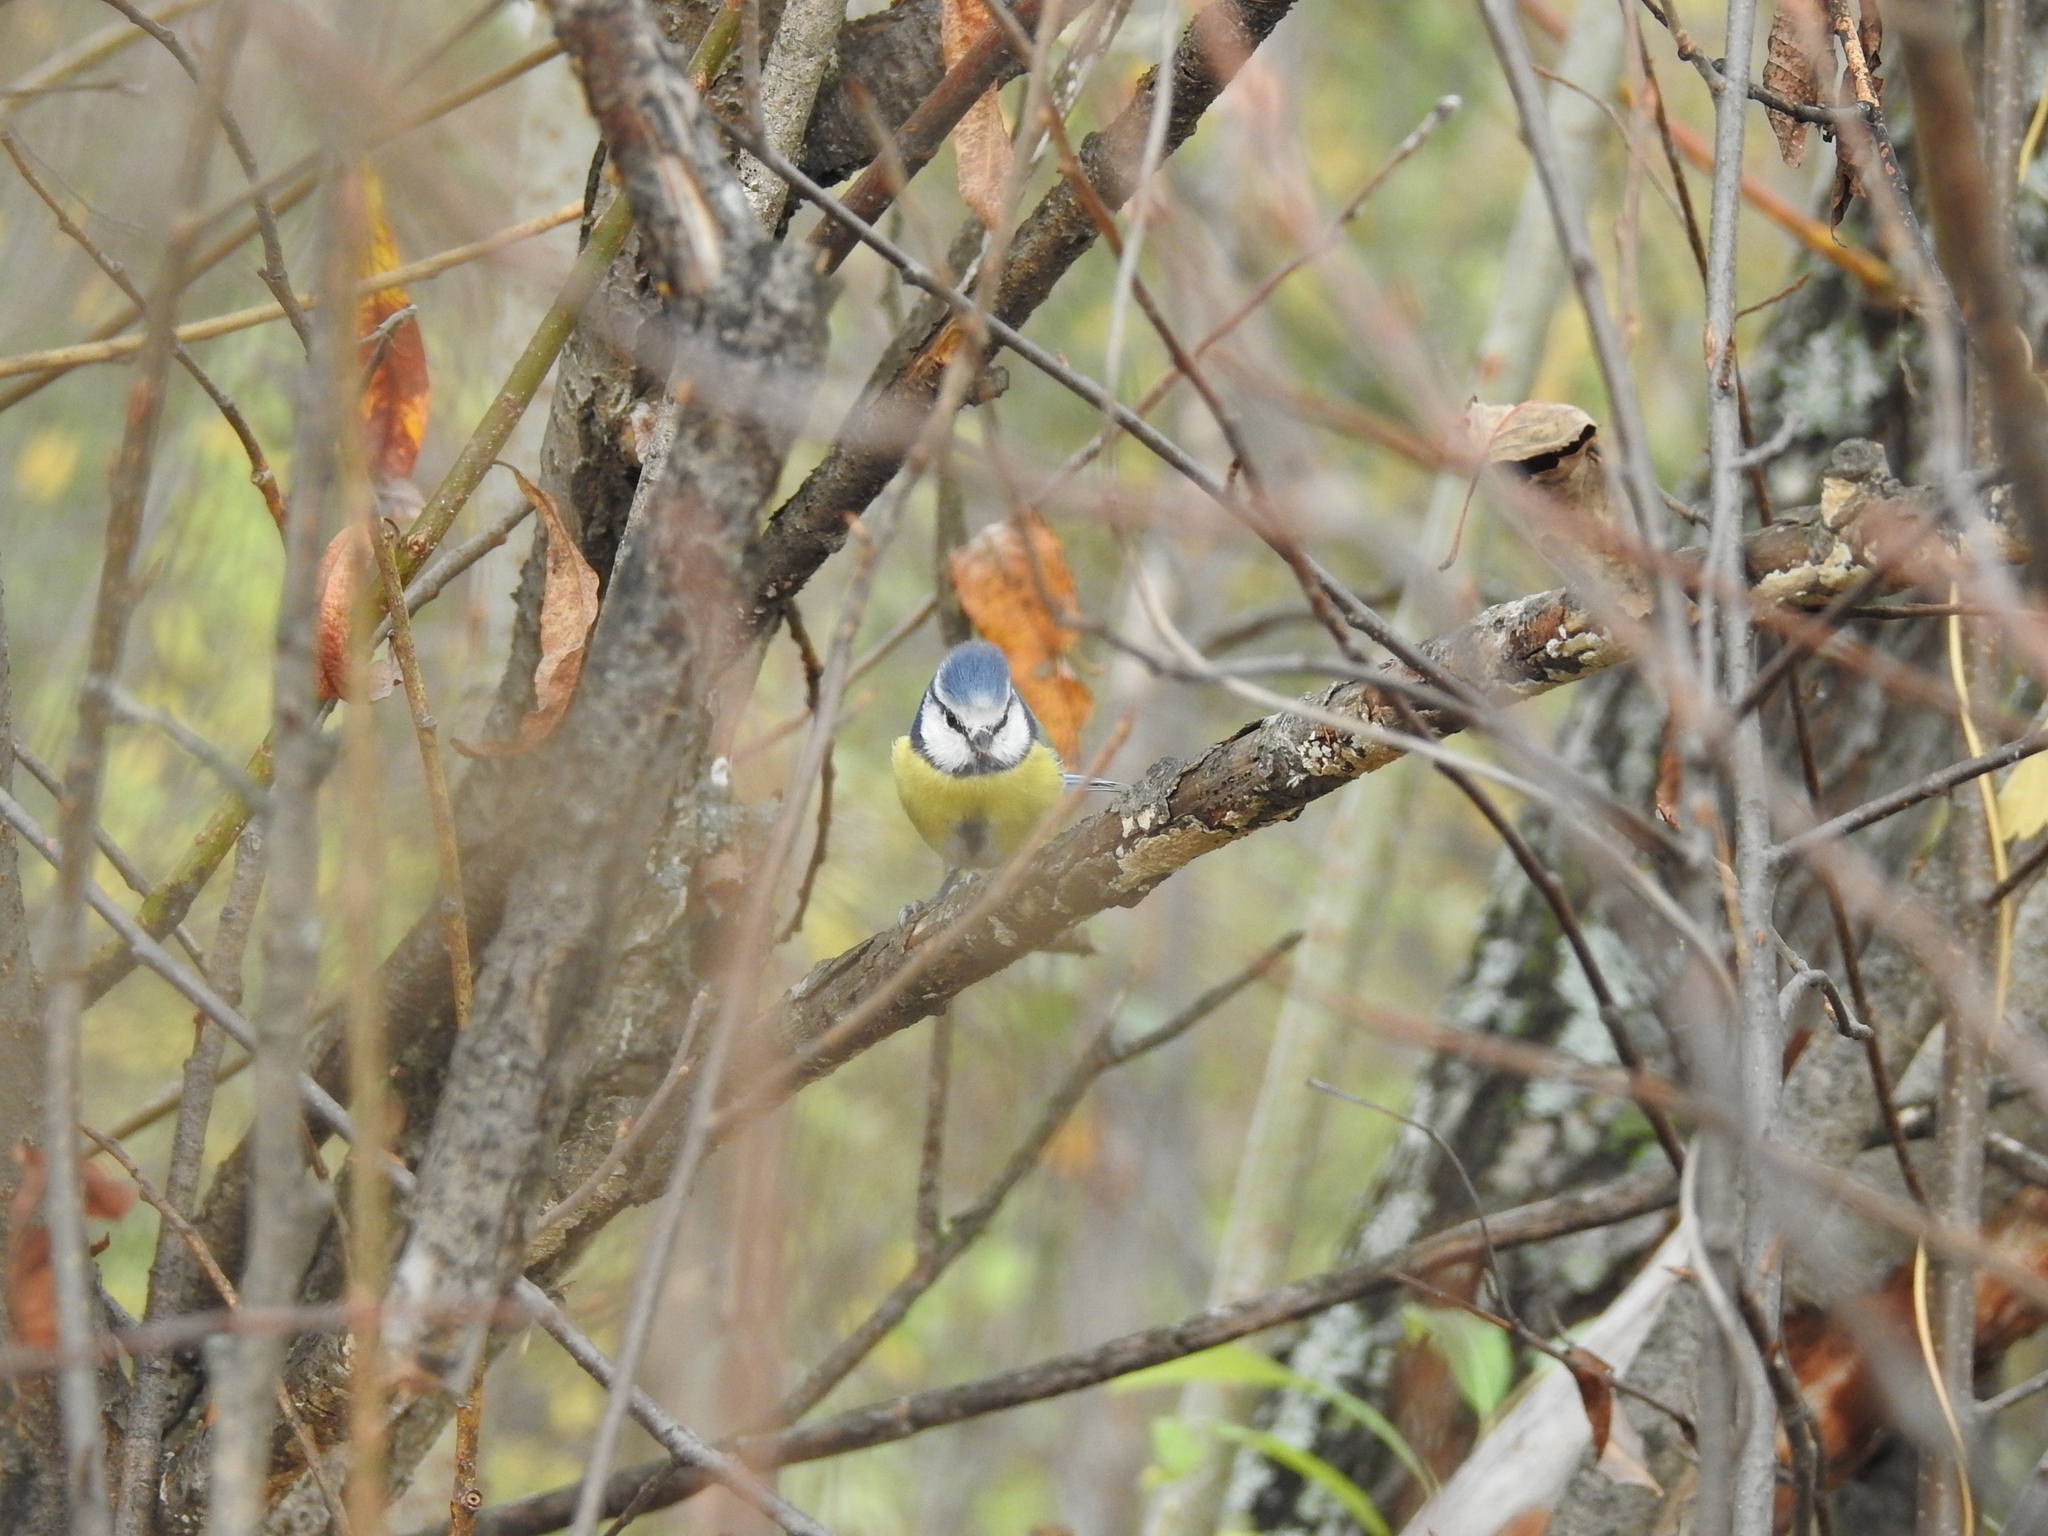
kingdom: Animalia
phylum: Chordata
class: Aves
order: Passeriformes
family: Paridae
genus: Cyanistes
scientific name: Cyanistes caeruleus
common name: Eurasian blue tit
